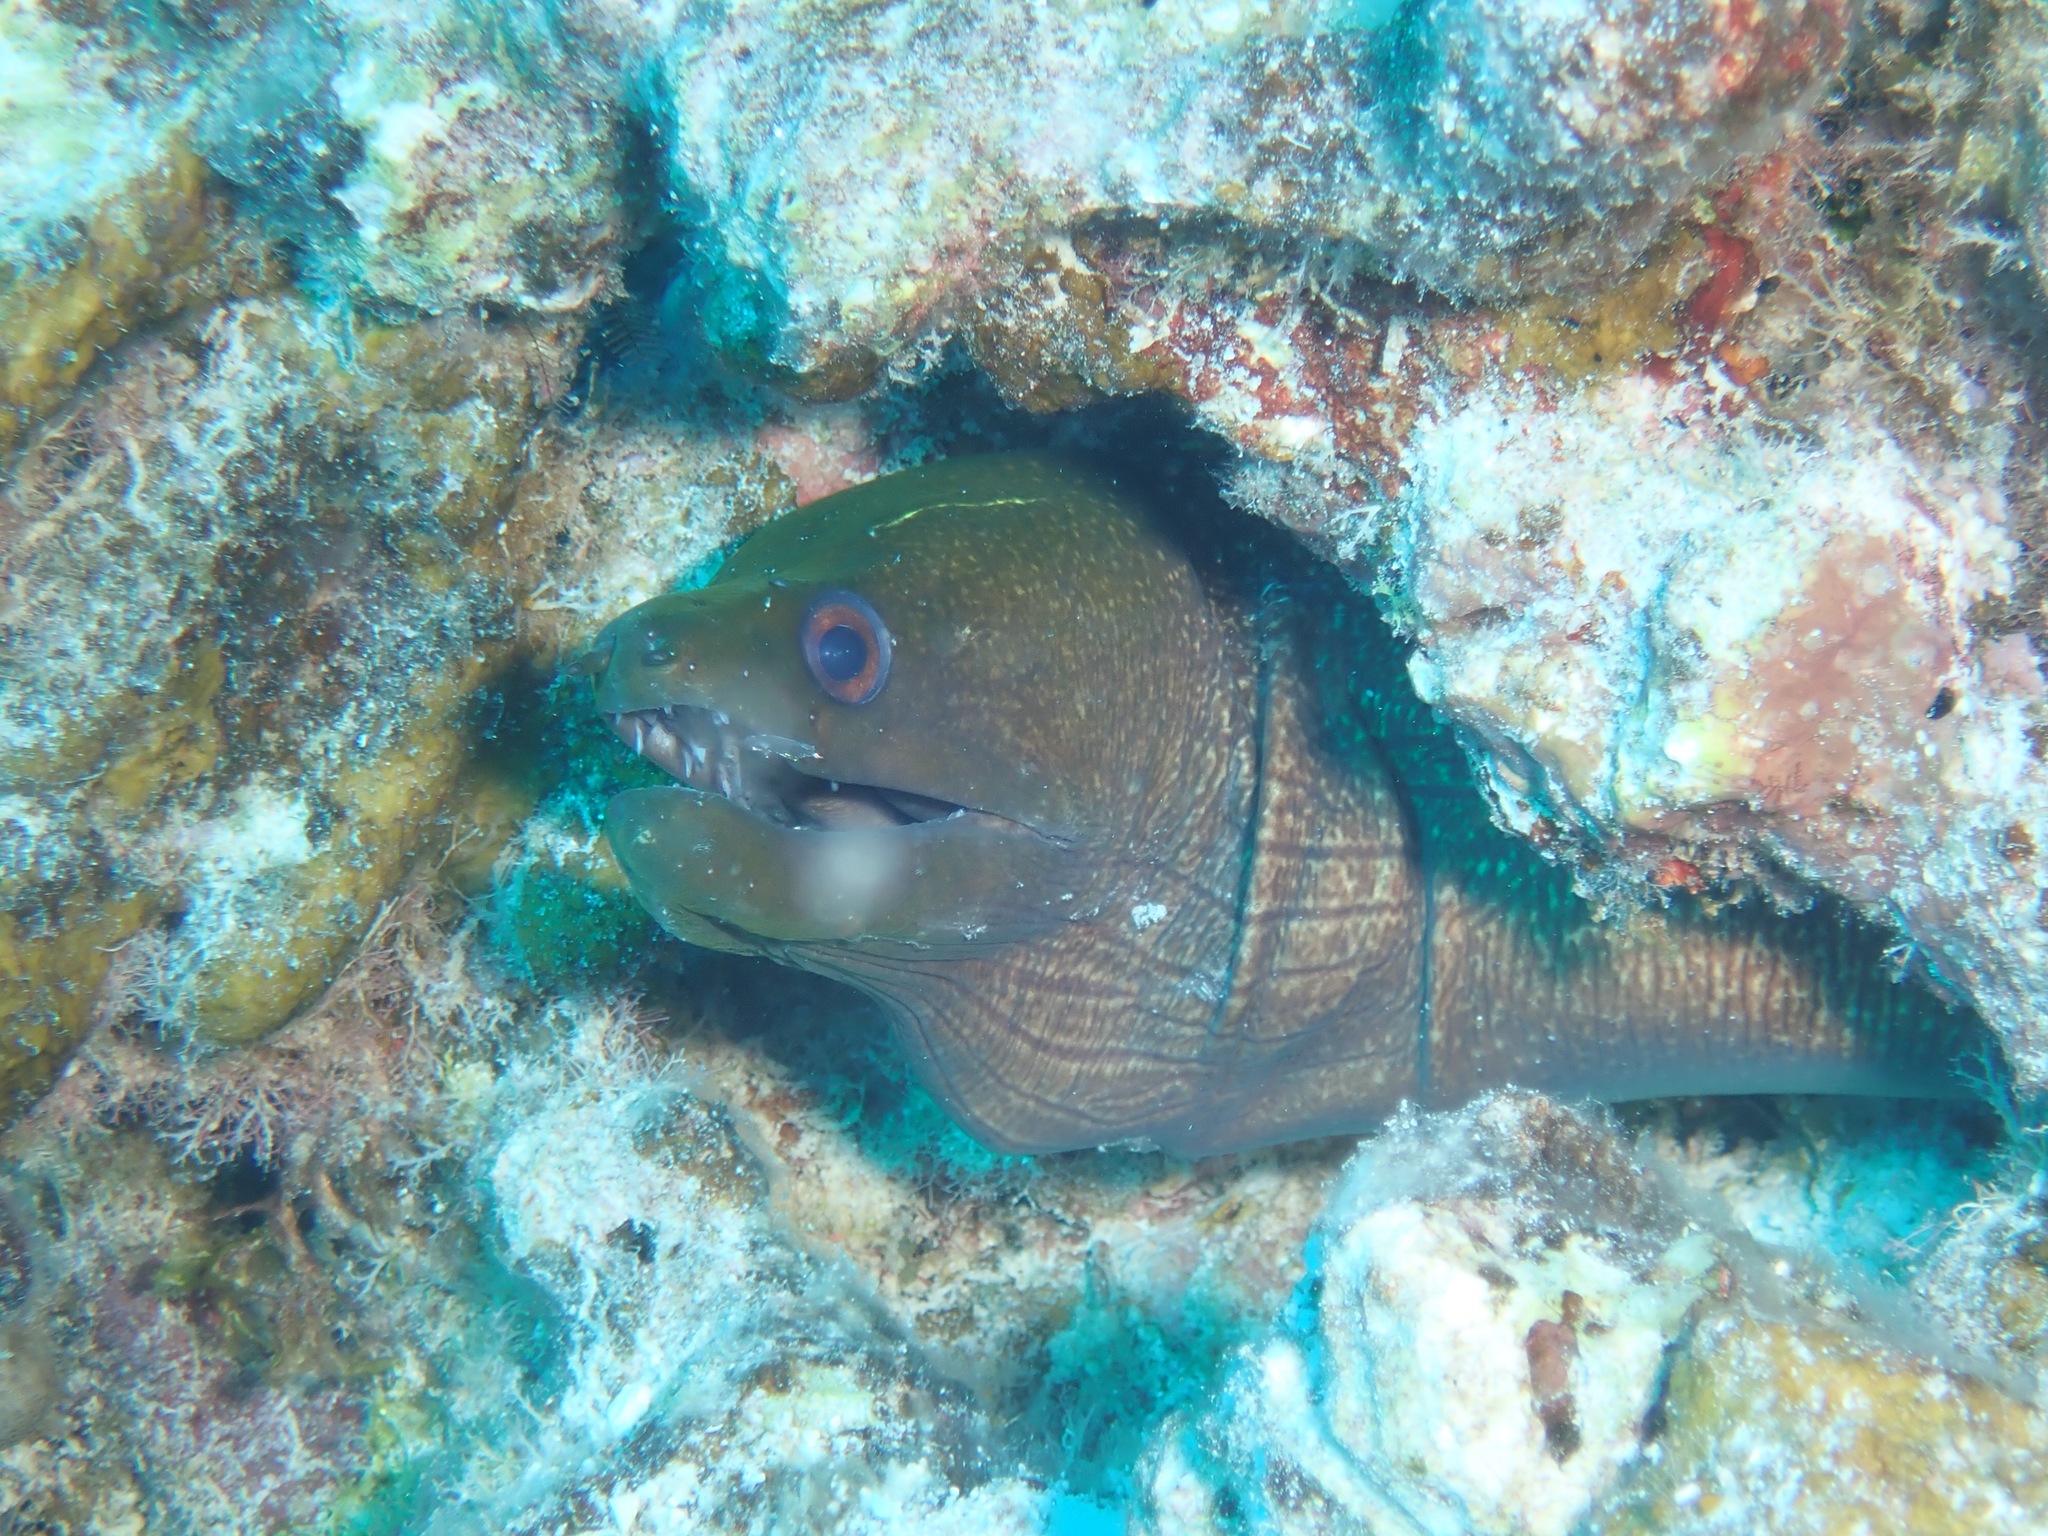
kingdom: Animalia
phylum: Chordata
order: Anguilliformes
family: Muraenidae
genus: Gymnothorax
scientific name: Gymnothorax undulatus
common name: Leopard moray
